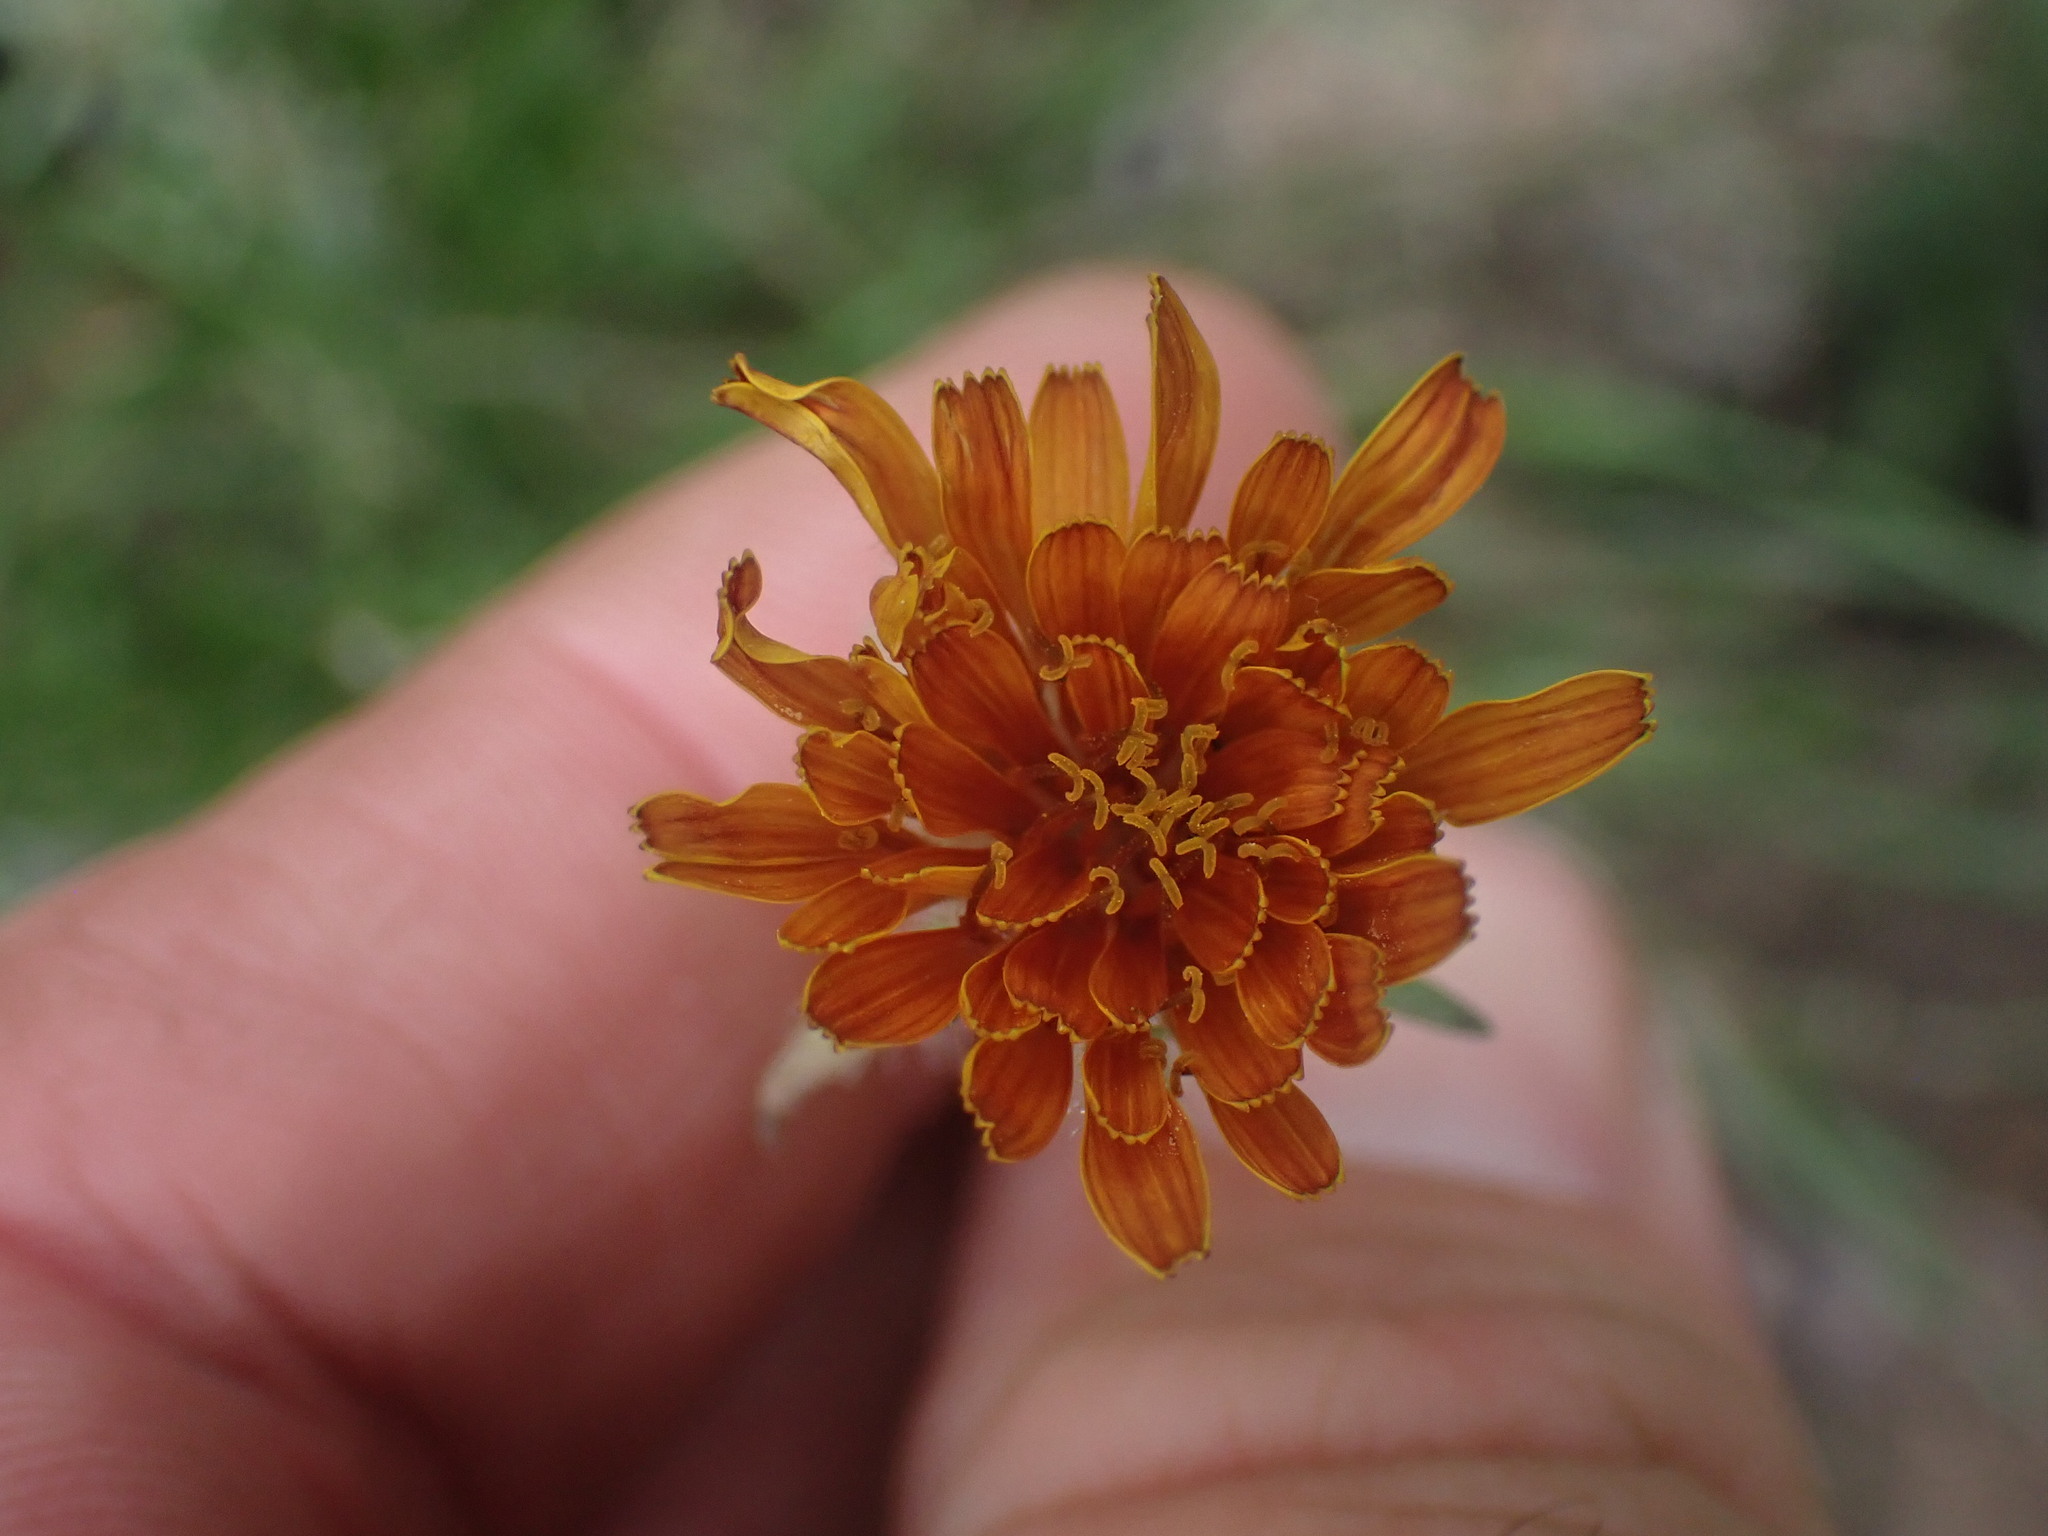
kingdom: Plantae
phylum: Tracheophyta
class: Magnoliopsida
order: Asterales
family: Asteraceae
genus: Agoseris
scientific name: Agoseris aurantiaca
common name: Mountain agoseris
